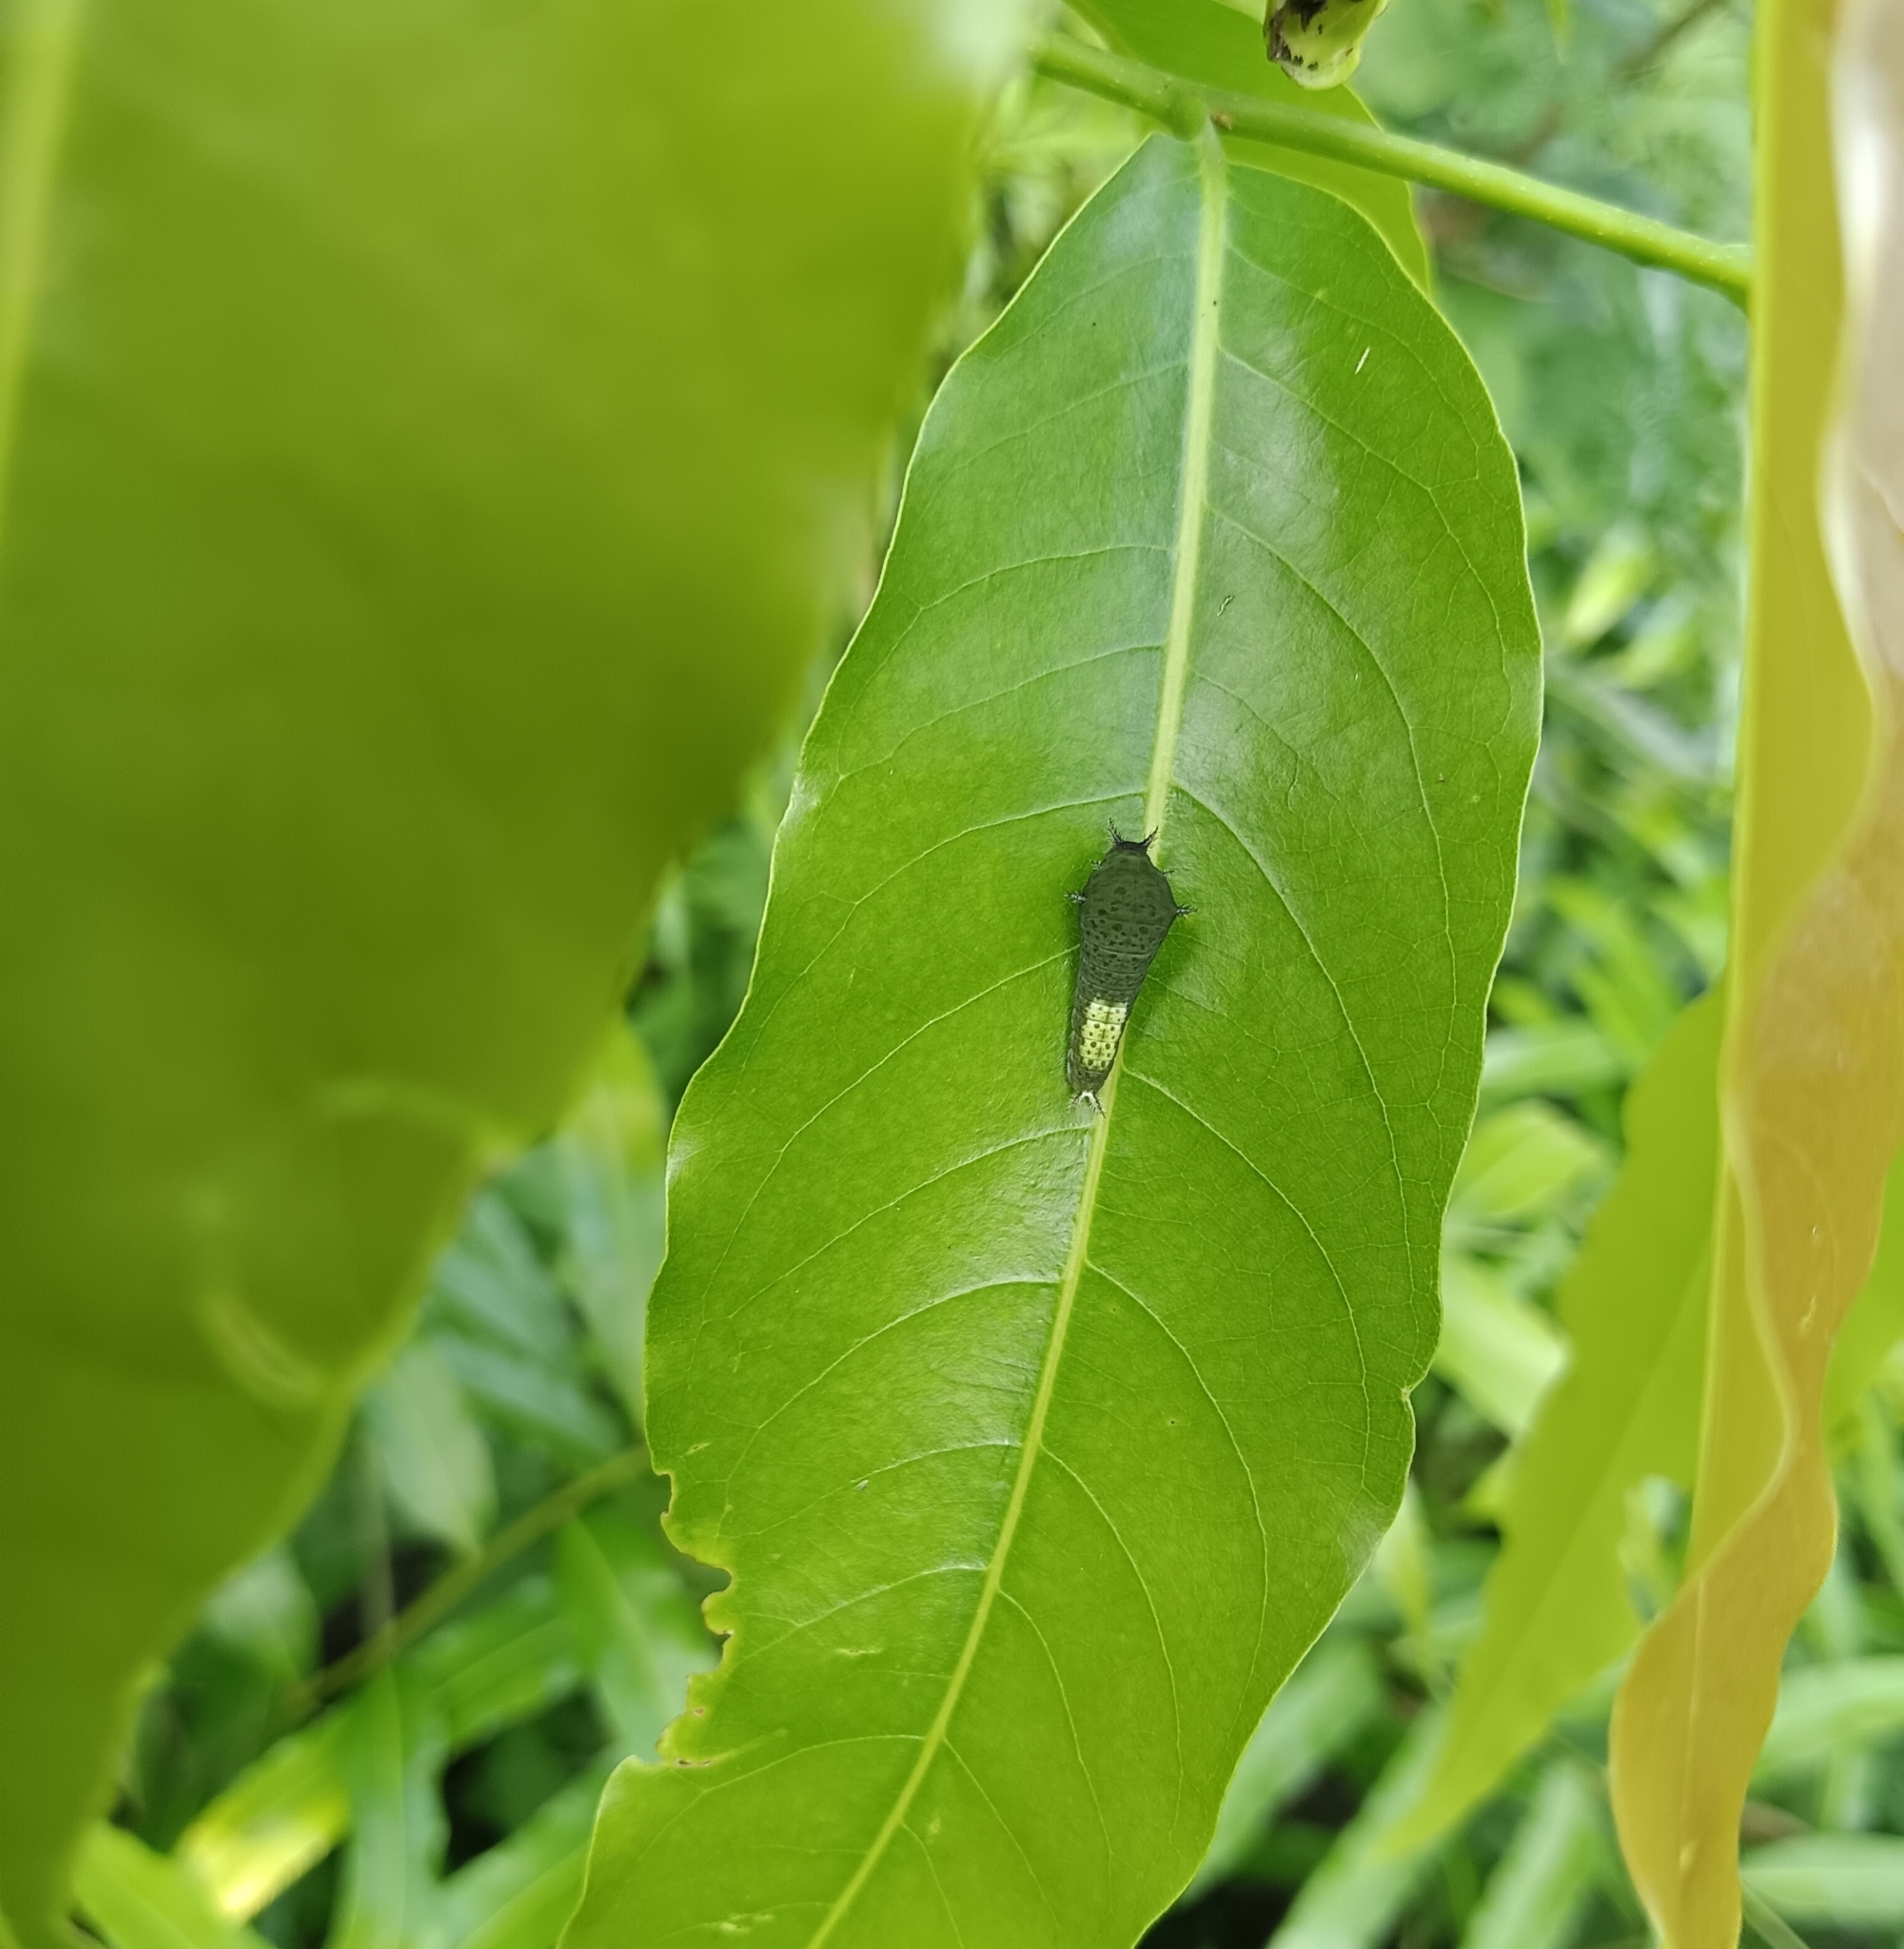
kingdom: Animalia
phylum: Arthropoda
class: Insecta
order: Lepidoptera
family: Papilionidae
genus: Graphium
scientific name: Graphium agamemnon
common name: Tailed jay
